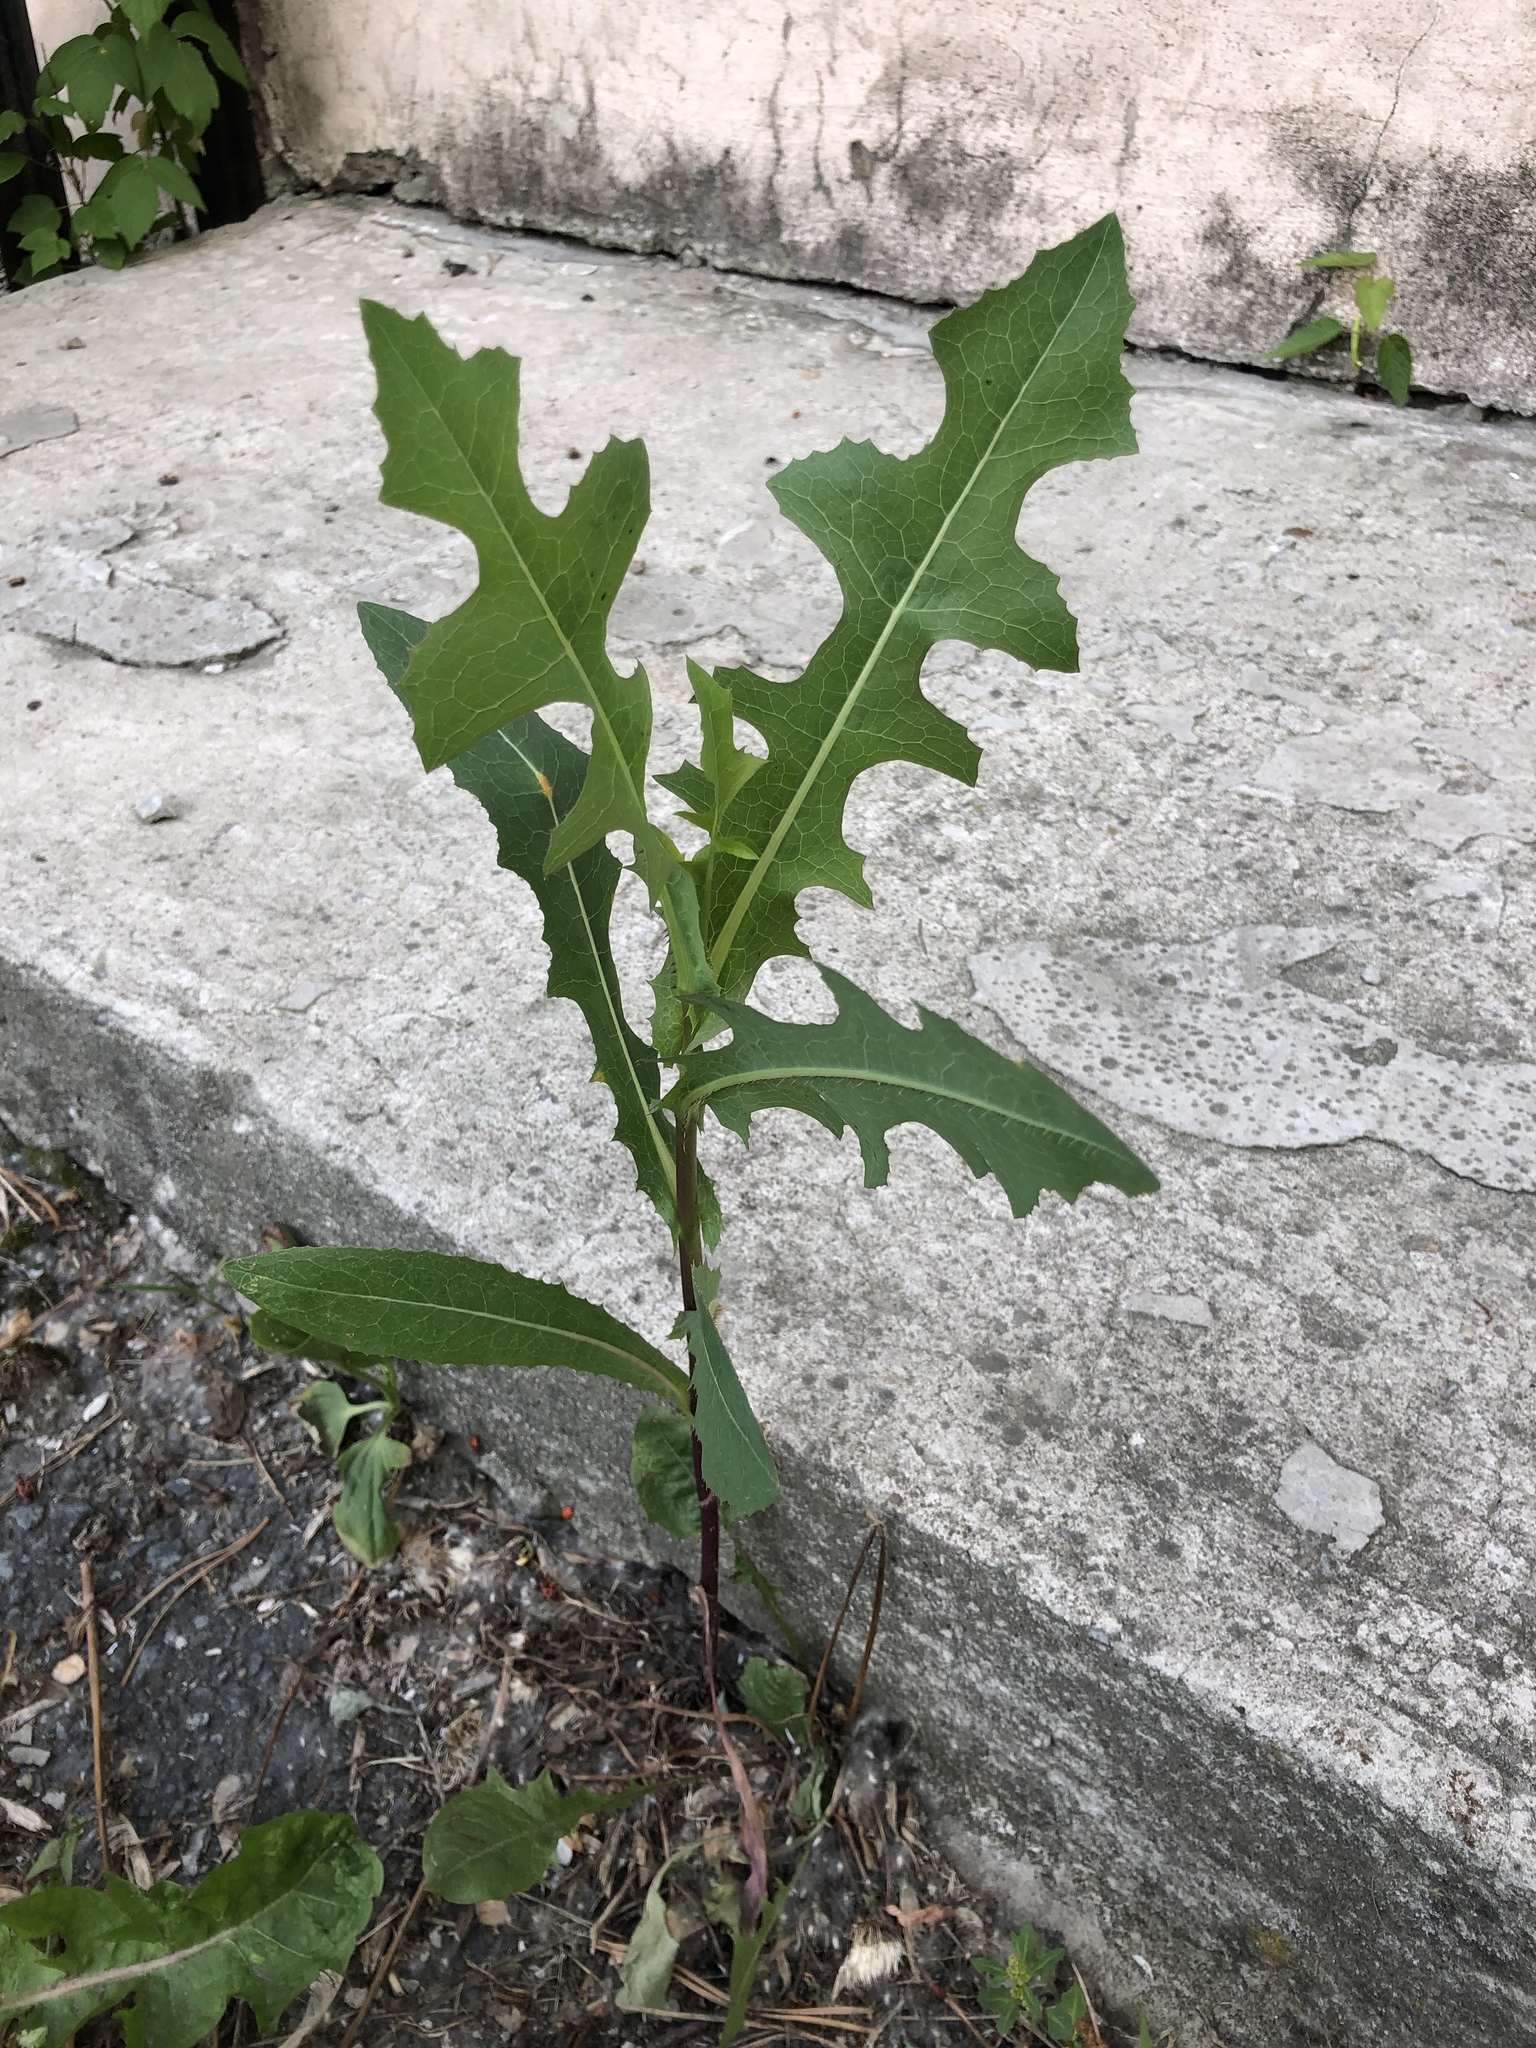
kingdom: Plantae
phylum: Tracheophyta
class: Magnoliopsida
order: Asterales
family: Asteraceae
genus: Lactuca
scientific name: Lactuca serriola
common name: Prickly lettuce
